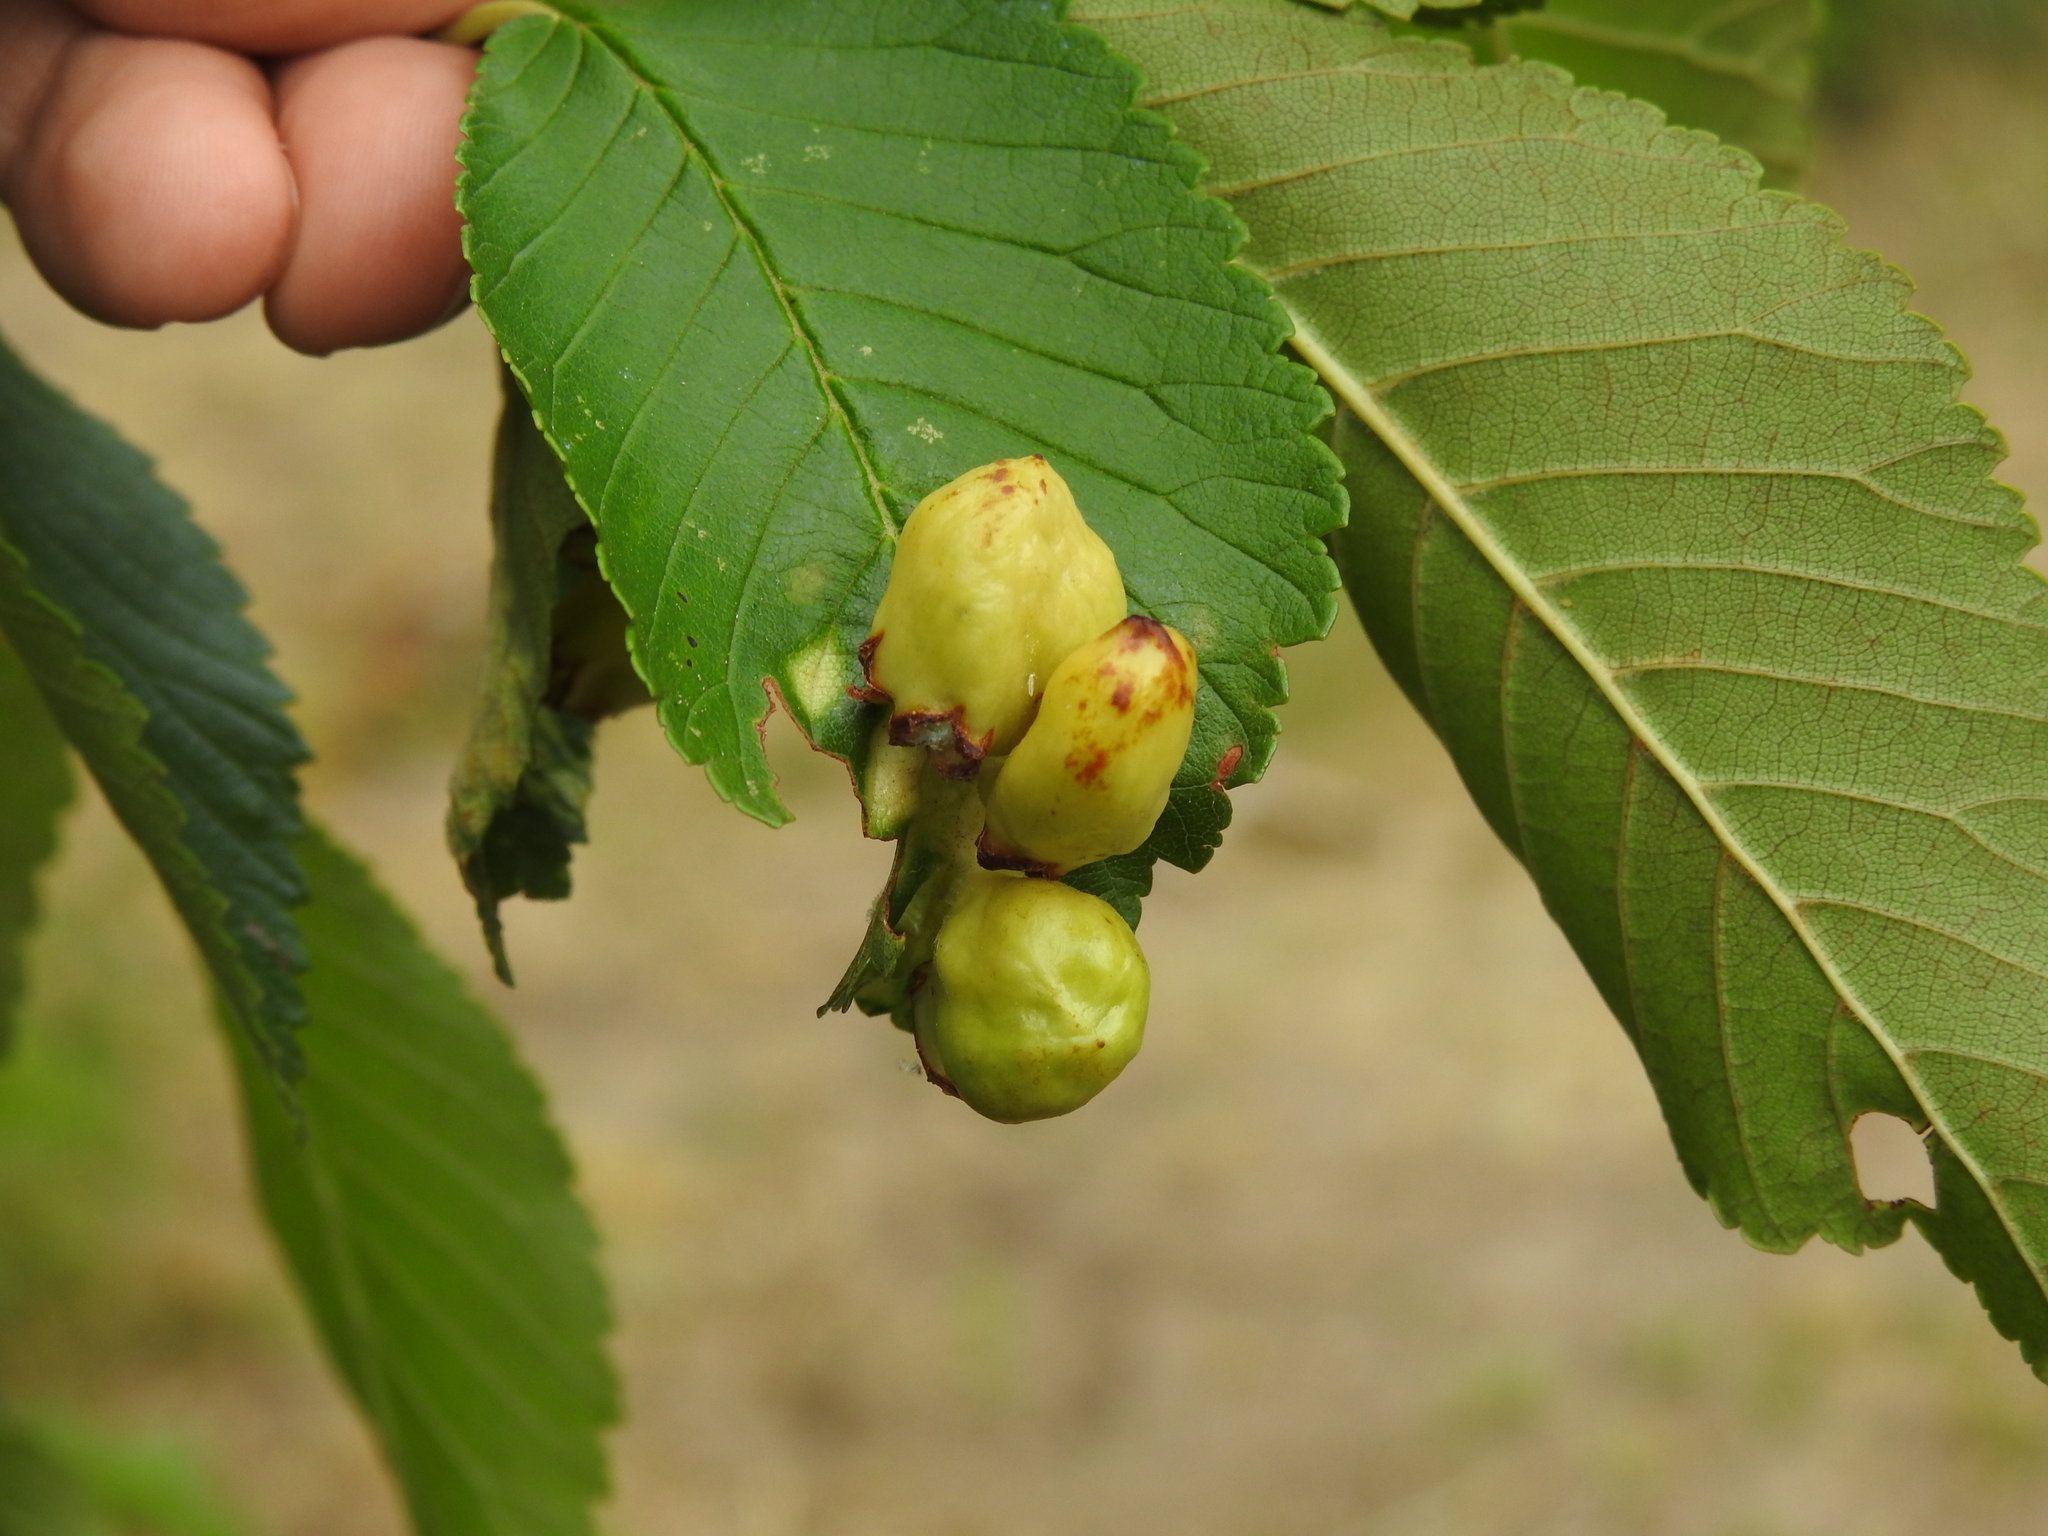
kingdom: Animalia
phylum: Arthropoda
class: Insecta
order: Hemiptera
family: Aphididae
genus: Tetraneura
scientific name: Tetraneura ulmi
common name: Aphid
